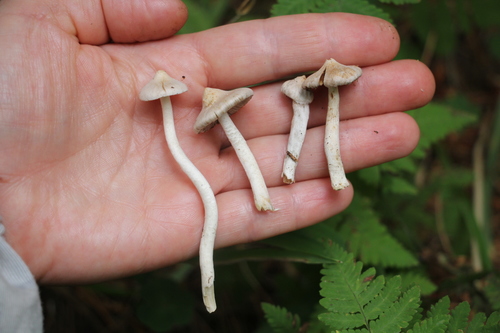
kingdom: Fungi
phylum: Basidiomycota
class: Agaricomycetes
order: Agaricales
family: Inocybaceae
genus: Inocybe
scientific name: Inocybe geophylla
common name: White fibrecap
